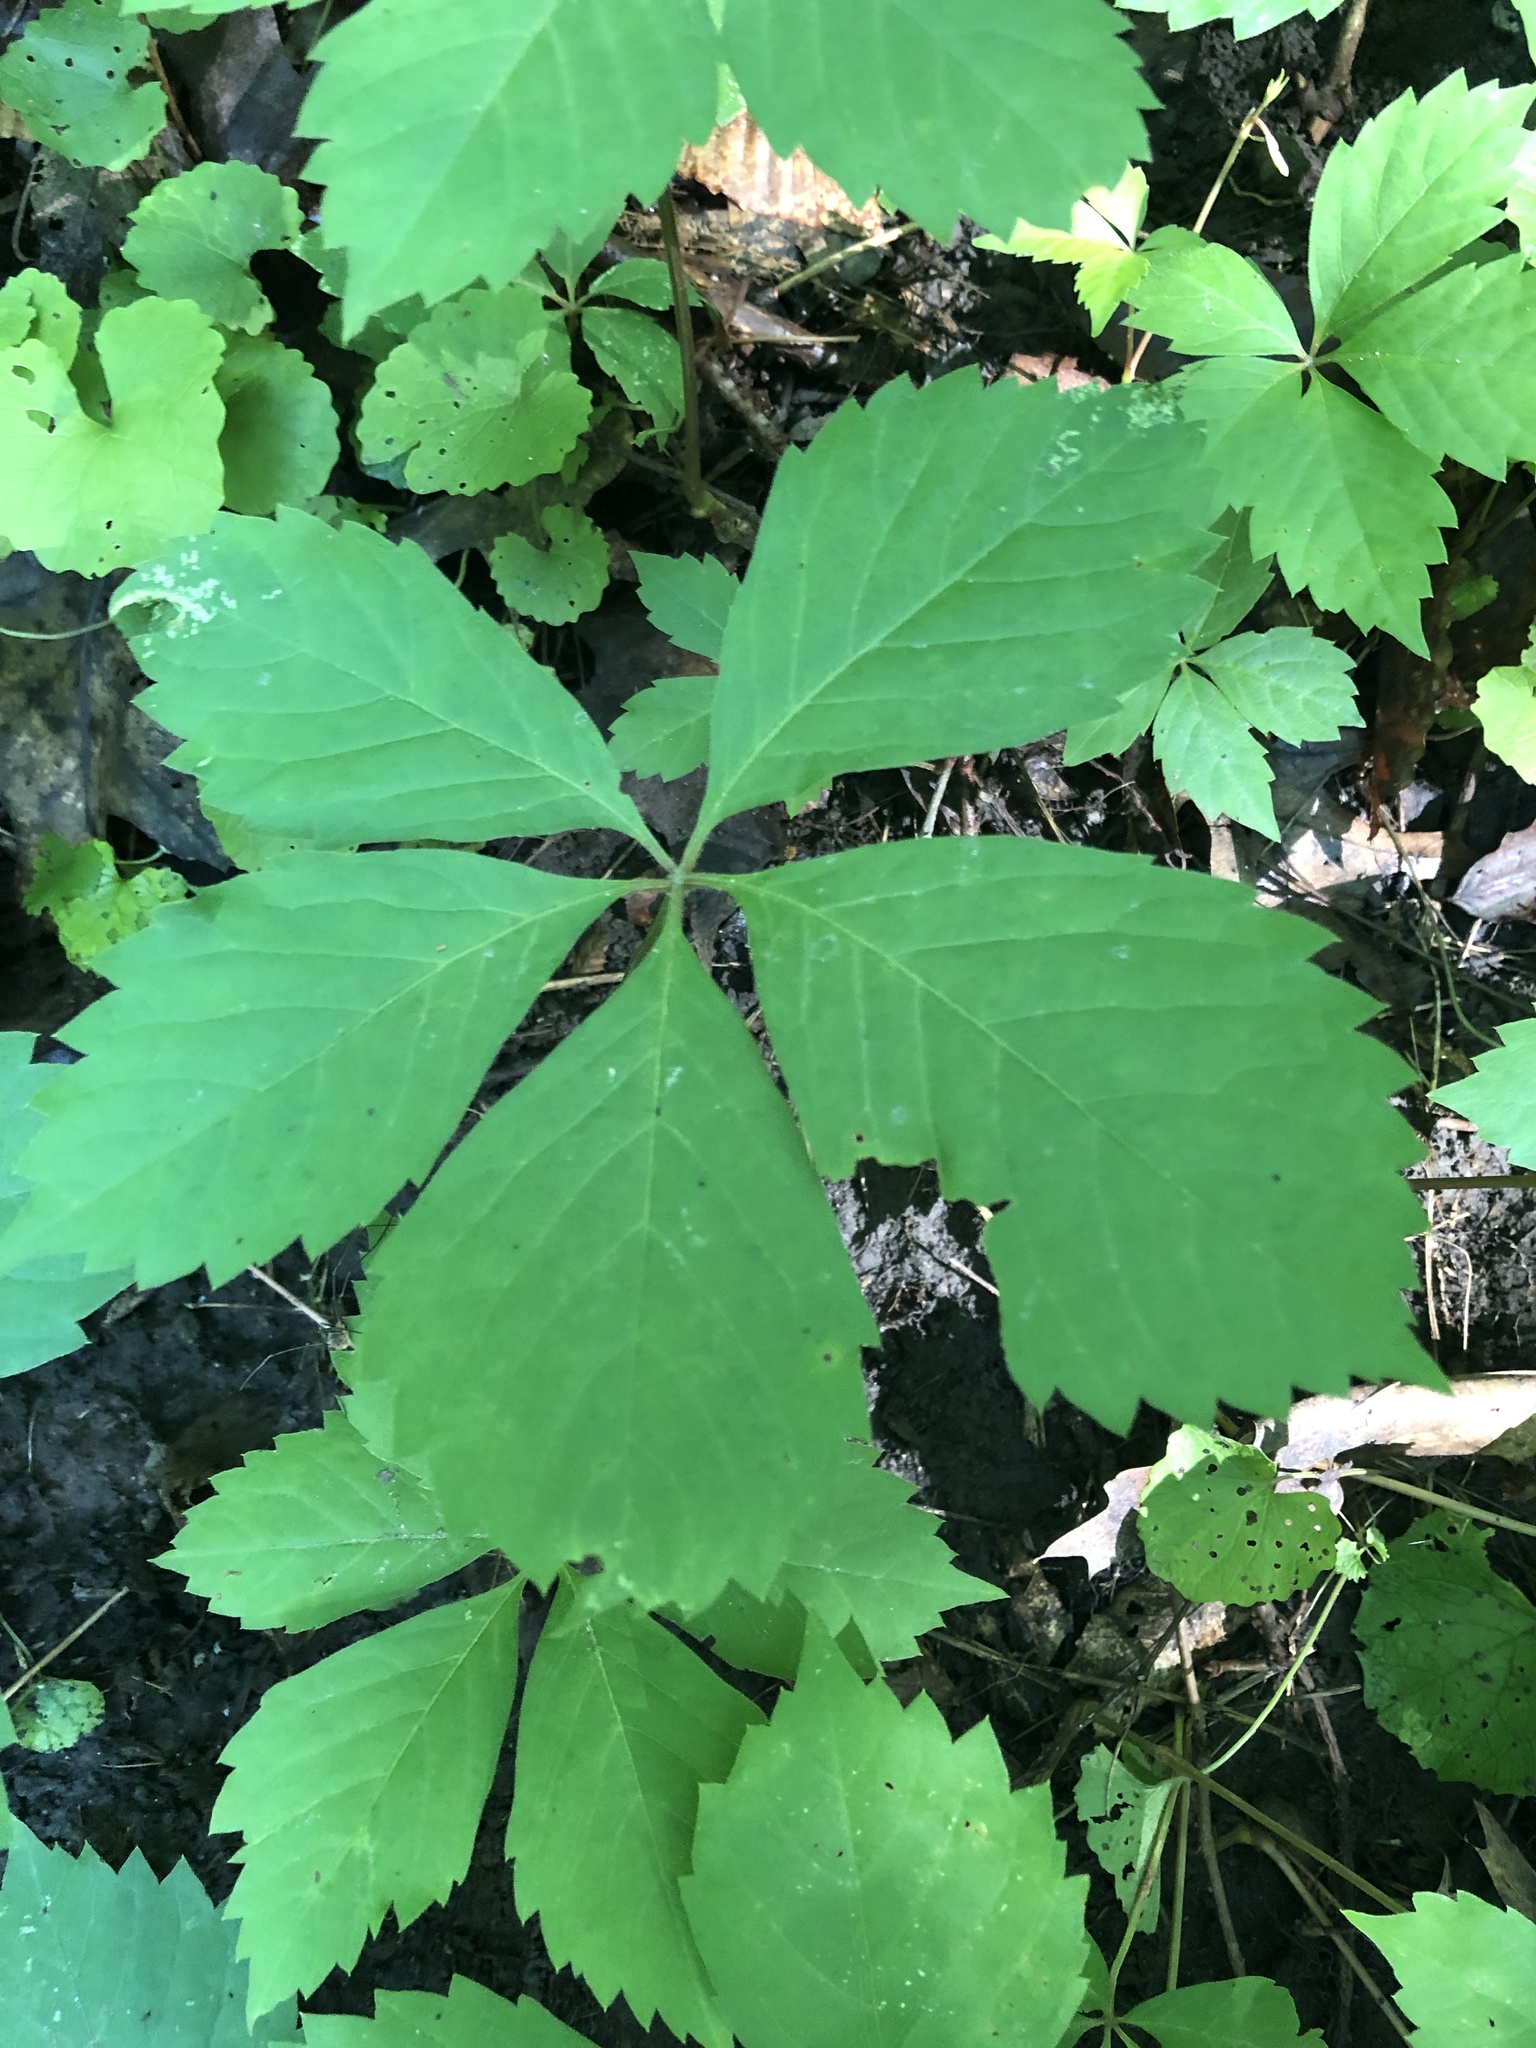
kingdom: Plantae
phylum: Tracheophyta
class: Magnoliopsida
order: Vitales
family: Vitaceae
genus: Parthenocissus
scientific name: Parthenocissus quinquefolia
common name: Virginia-creeper
